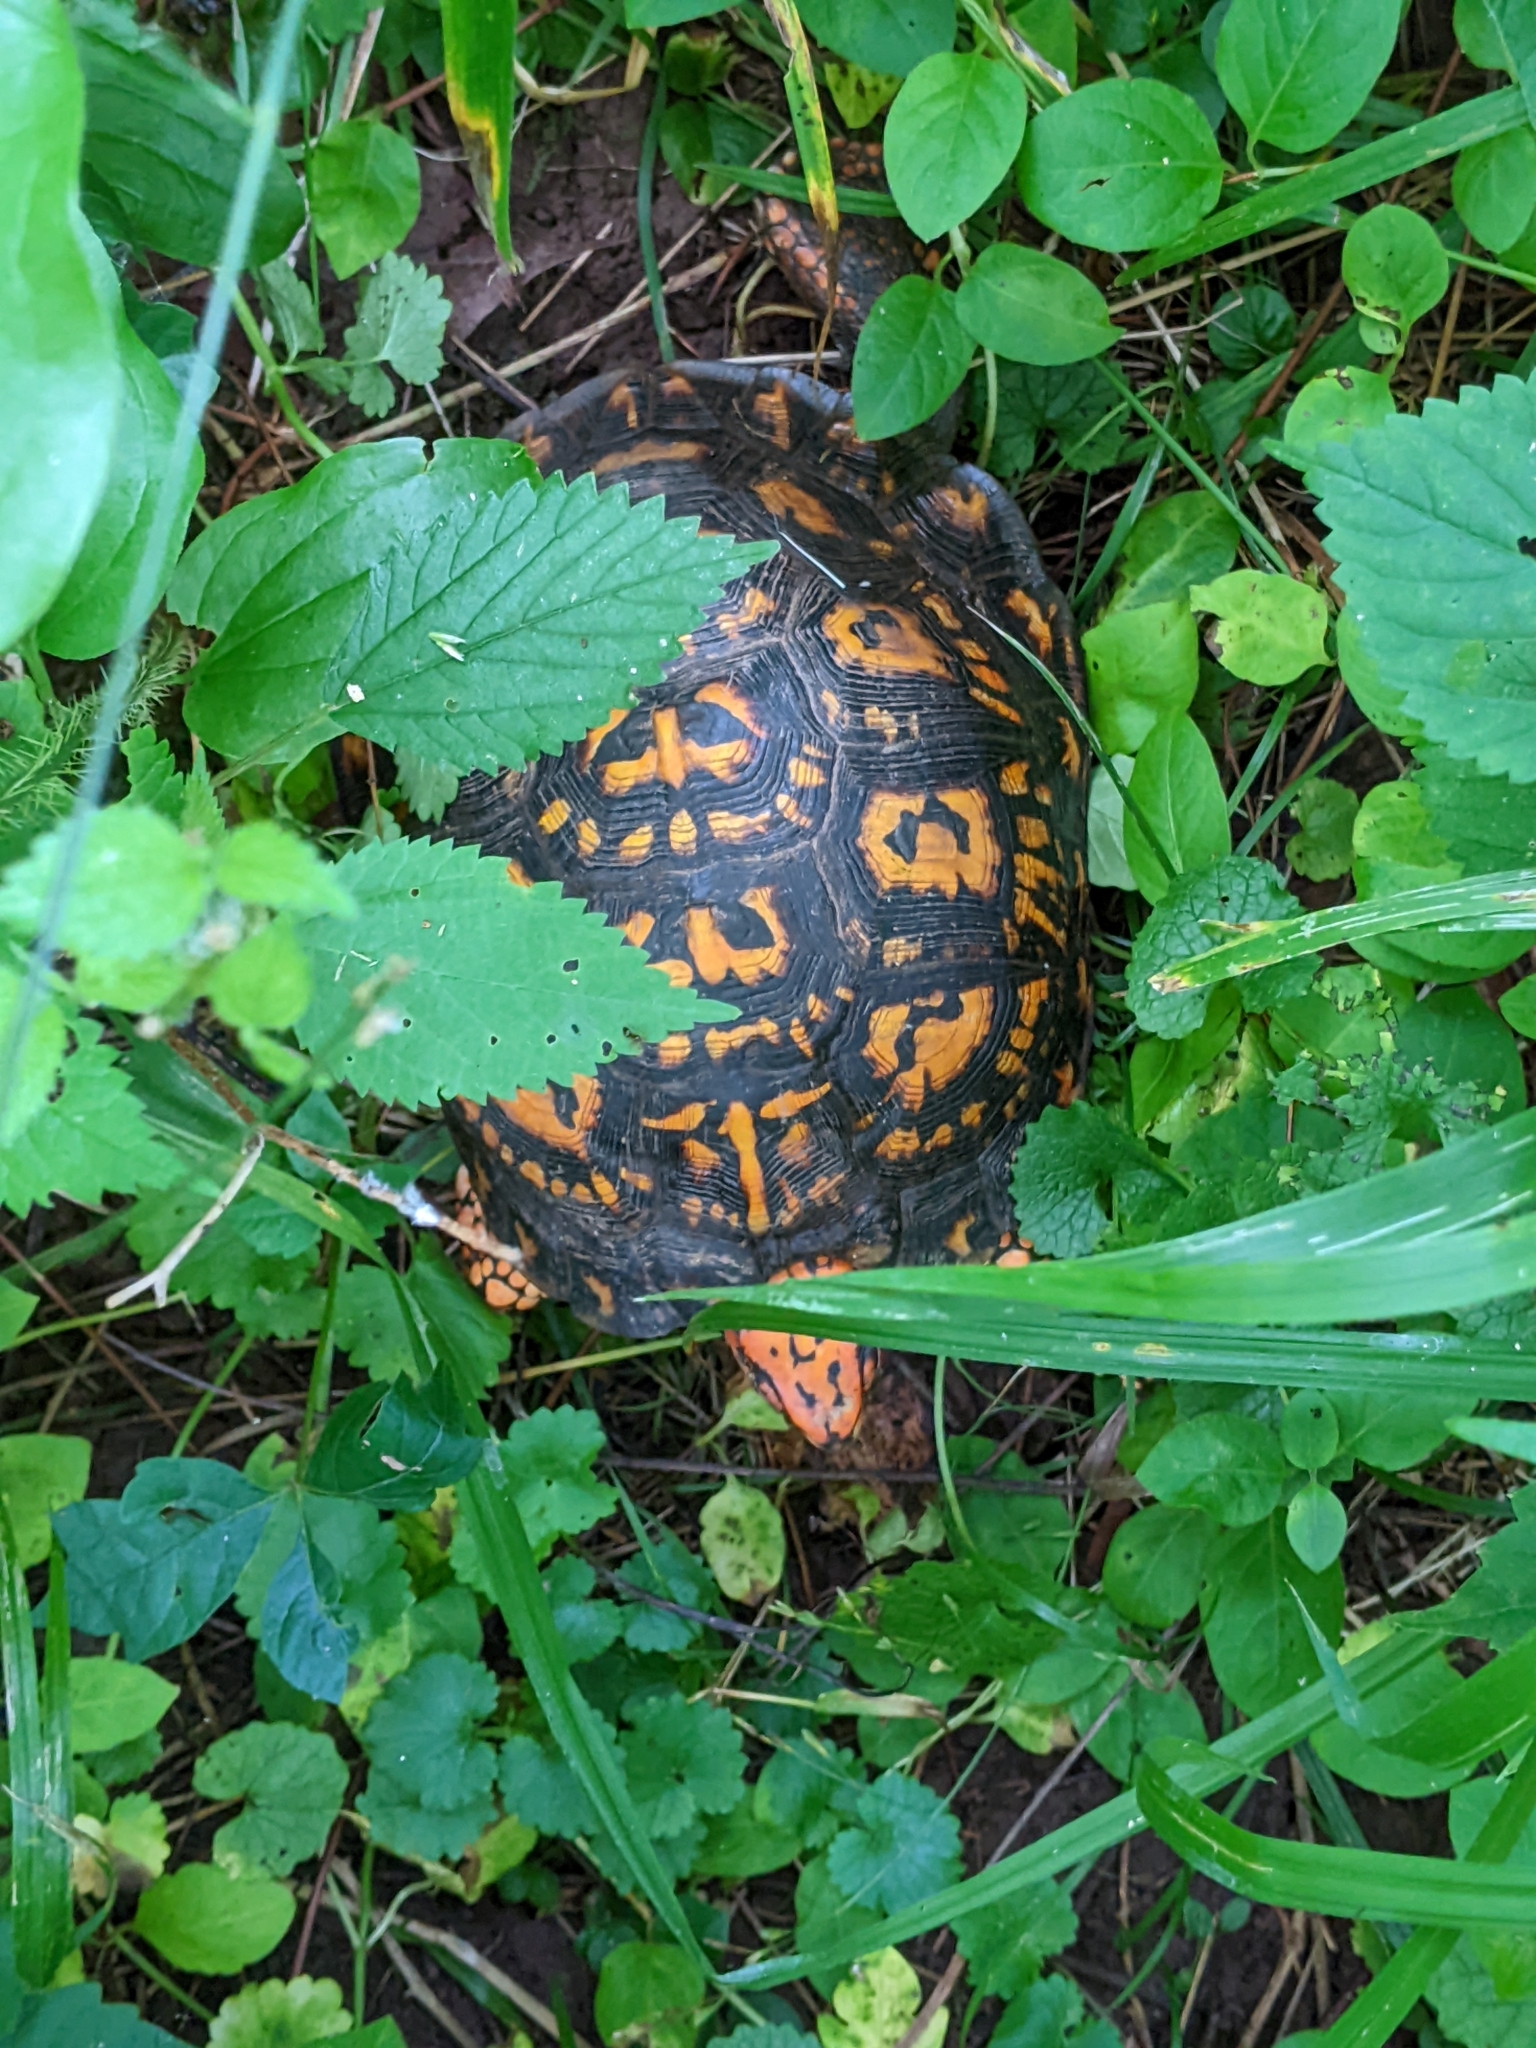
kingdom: Animalia
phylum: Chordata
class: Testudines
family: Emydidae
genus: Terrapene
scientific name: Terrapene carolina
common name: Common box turtle
